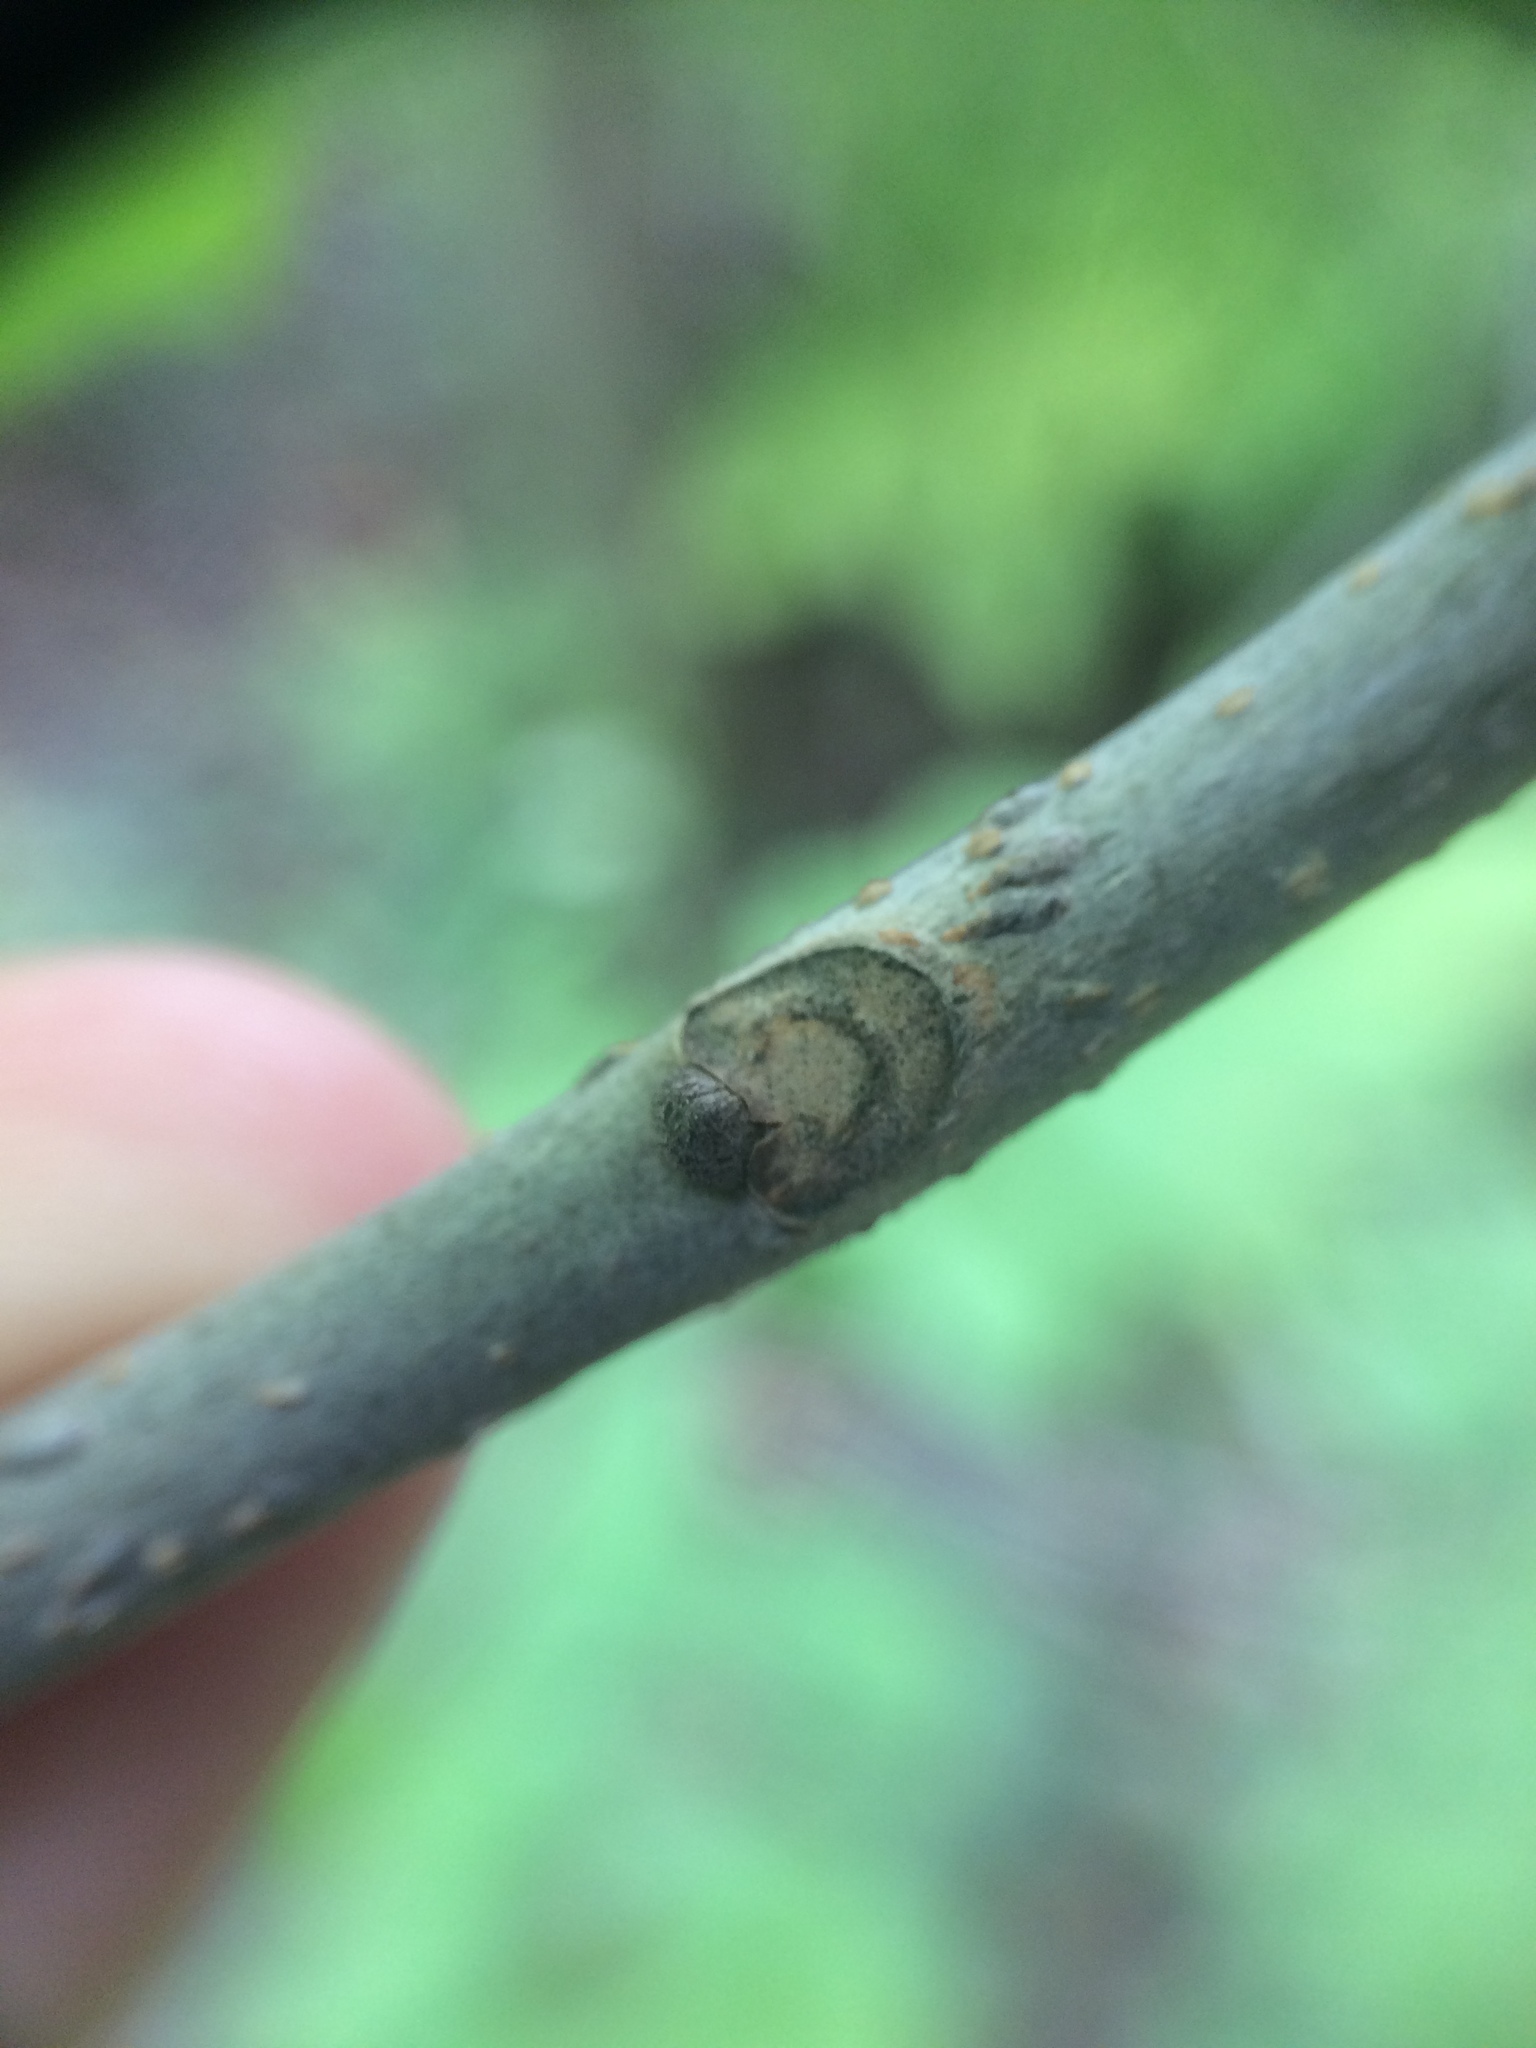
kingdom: Plantae
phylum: Tracheophyta
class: Magnoliopsida
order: Lamiales
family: Oleaceae
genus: Fraxinus
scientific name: Fraxinus pennsylvanica
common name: Green ash
